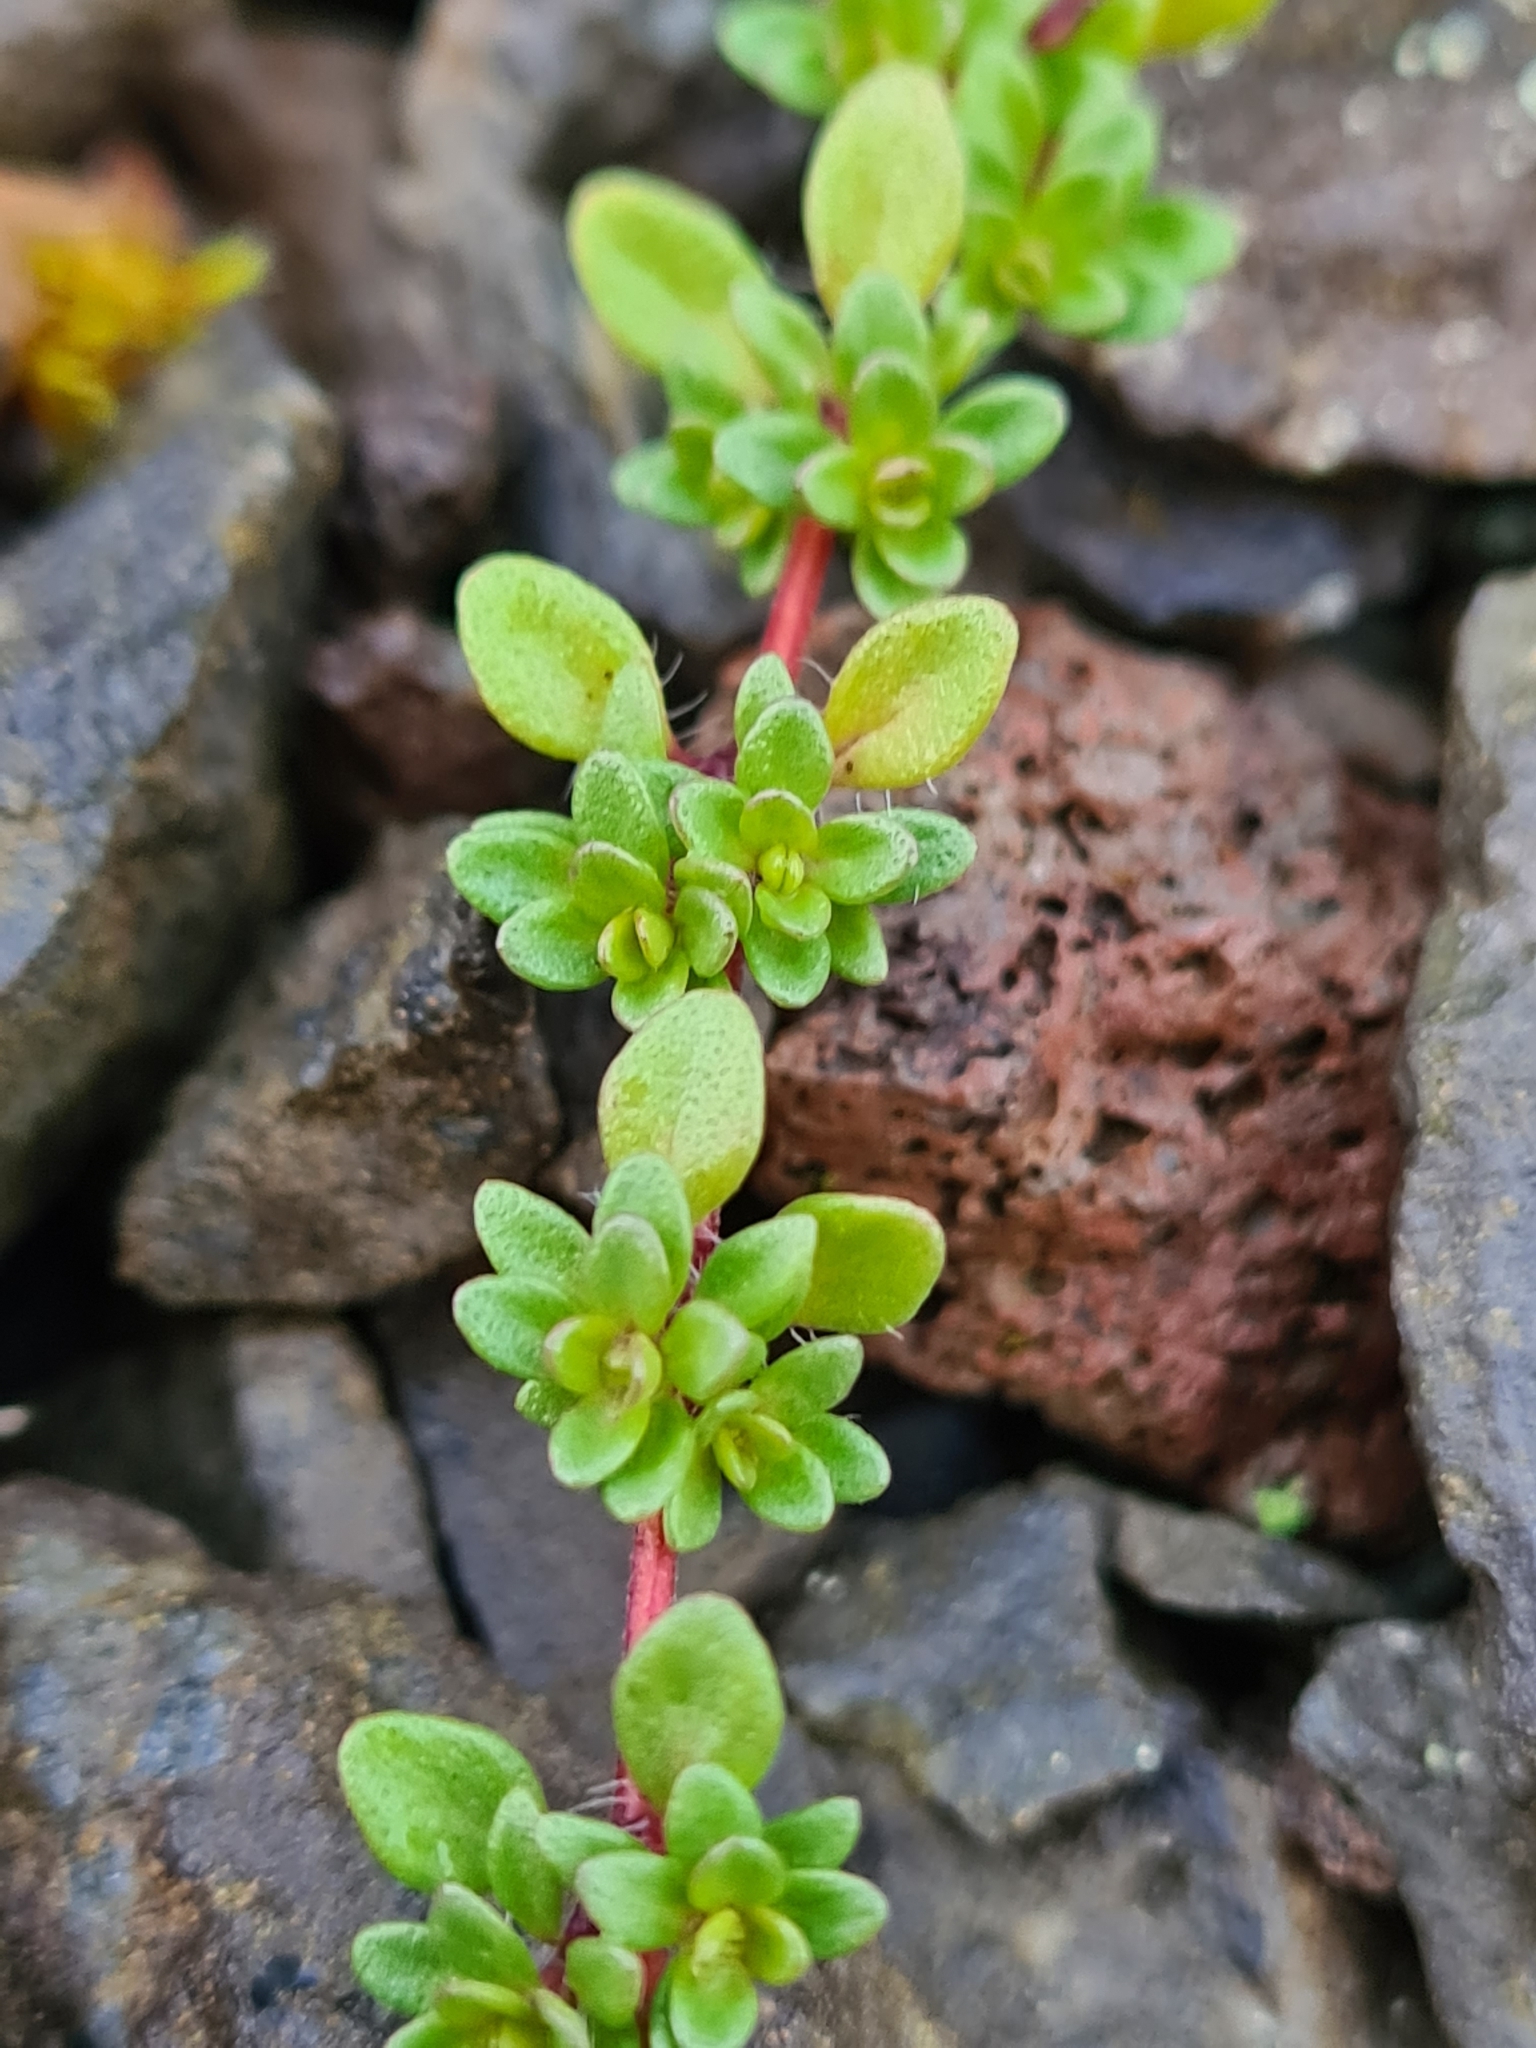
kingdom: Plantae
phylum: Tracheophyta
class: Magnoliopsida
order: Lamiales
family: Lamiaceae
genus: Thymus
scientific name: Thymus praecox
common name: Wild thyme
